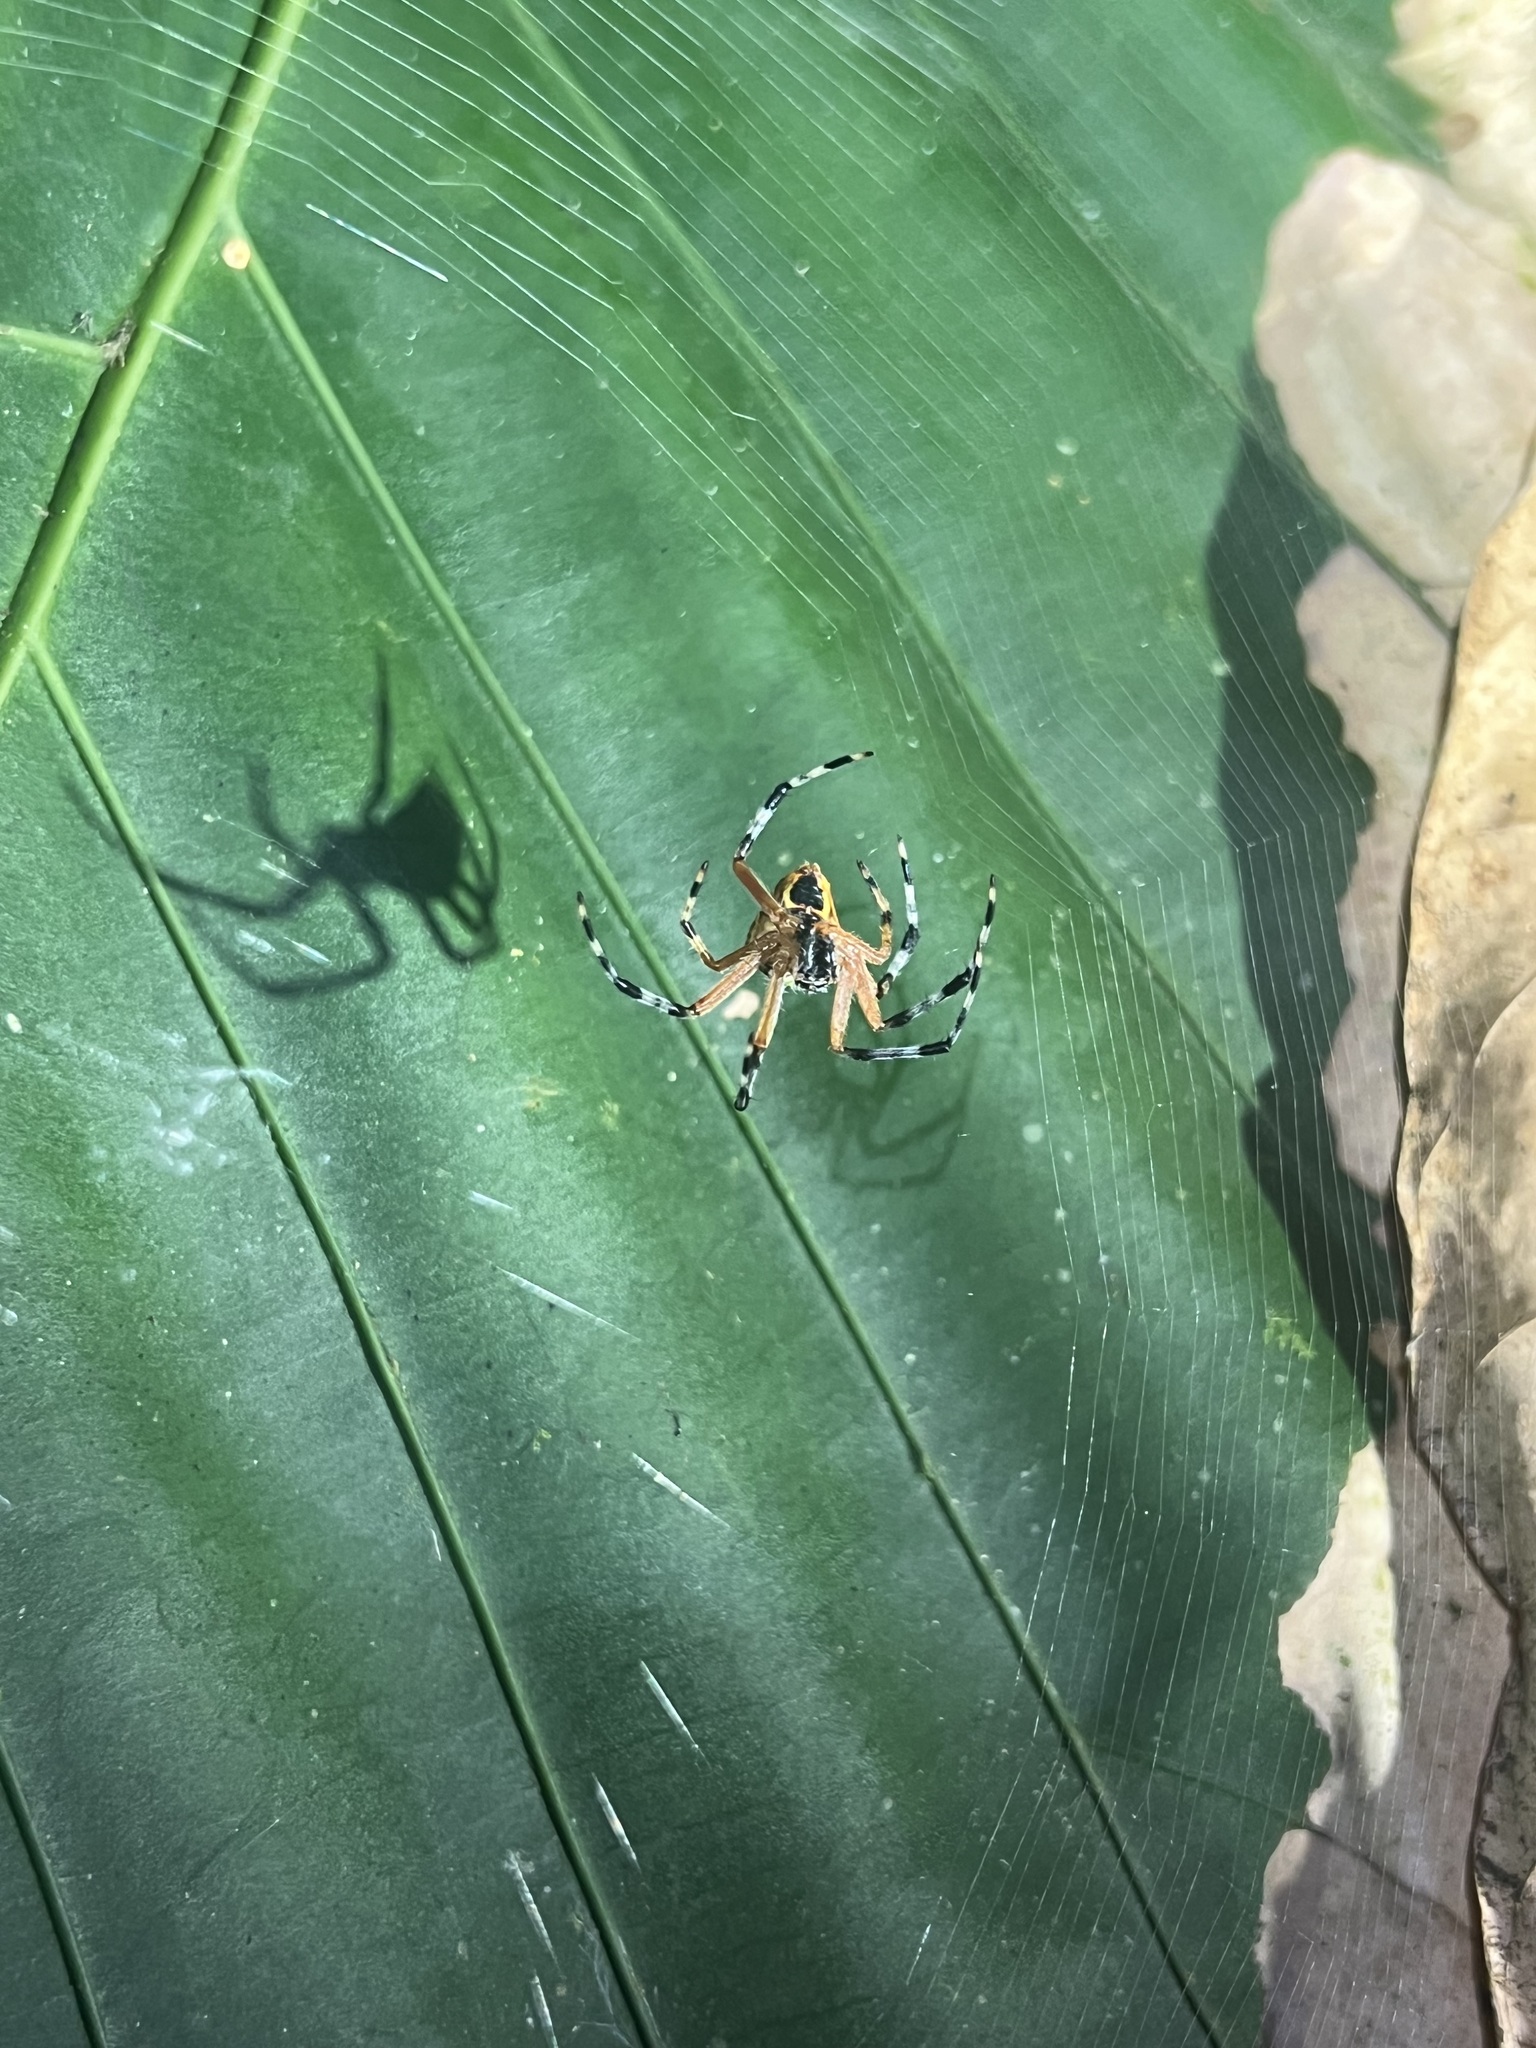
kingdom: Animalia
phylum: Arthropoda
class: Arachnida
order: Araneae
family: Araneidae
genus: Eriophora
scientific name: Eriophora nephiloides
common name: Orb weavers
